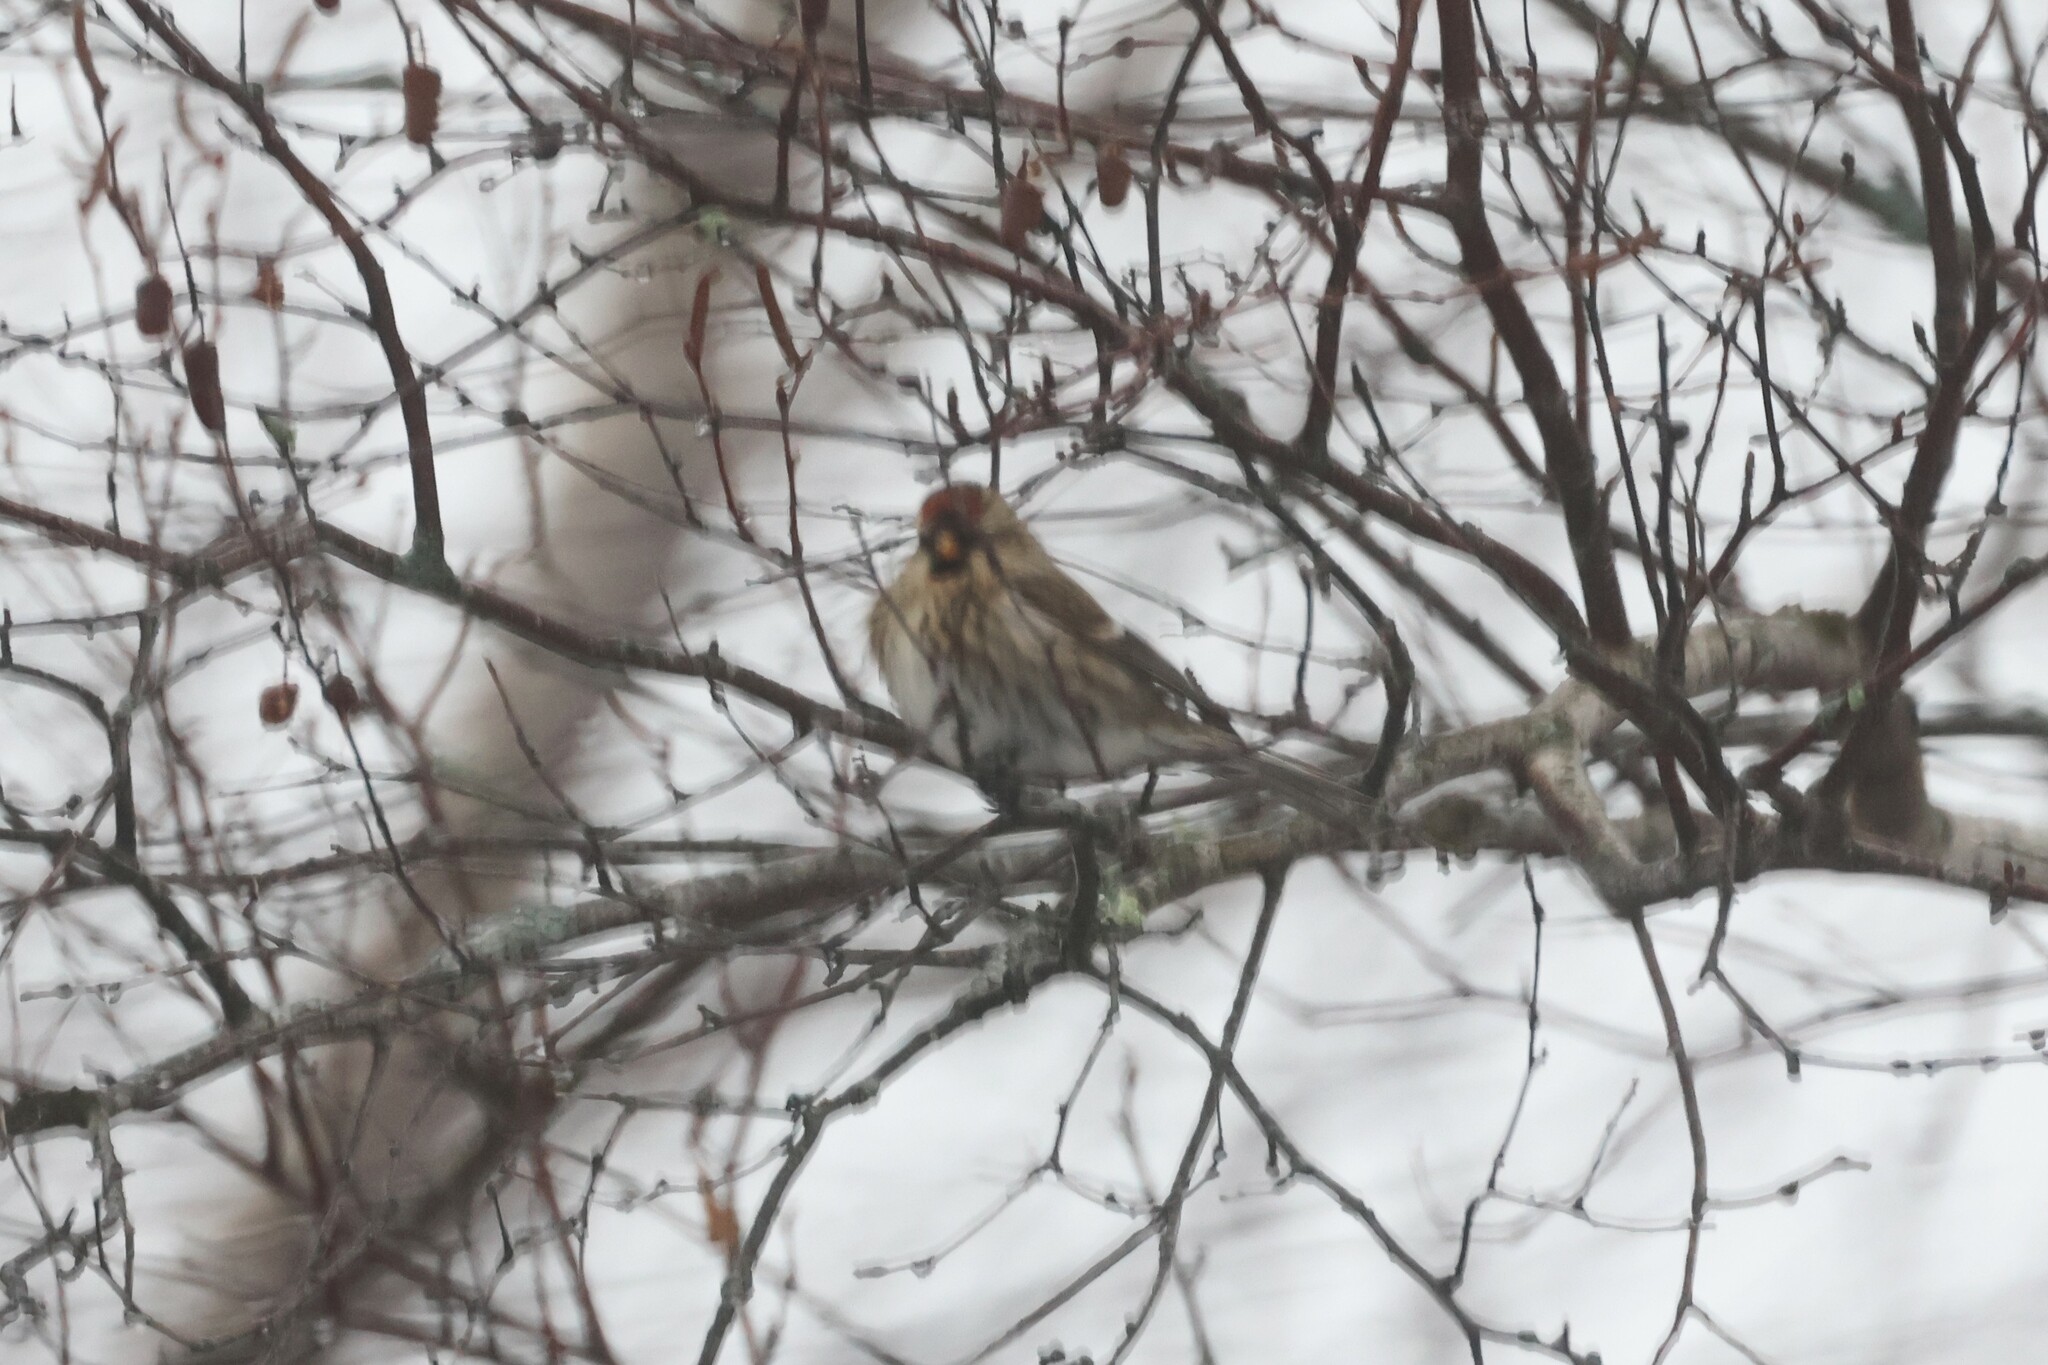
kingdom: Animalia
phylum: Chordata
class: Aves
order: Passeriformes
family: Fringillidae
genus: Acanthis
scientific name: Acanthis flammea
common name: Common redpoll
